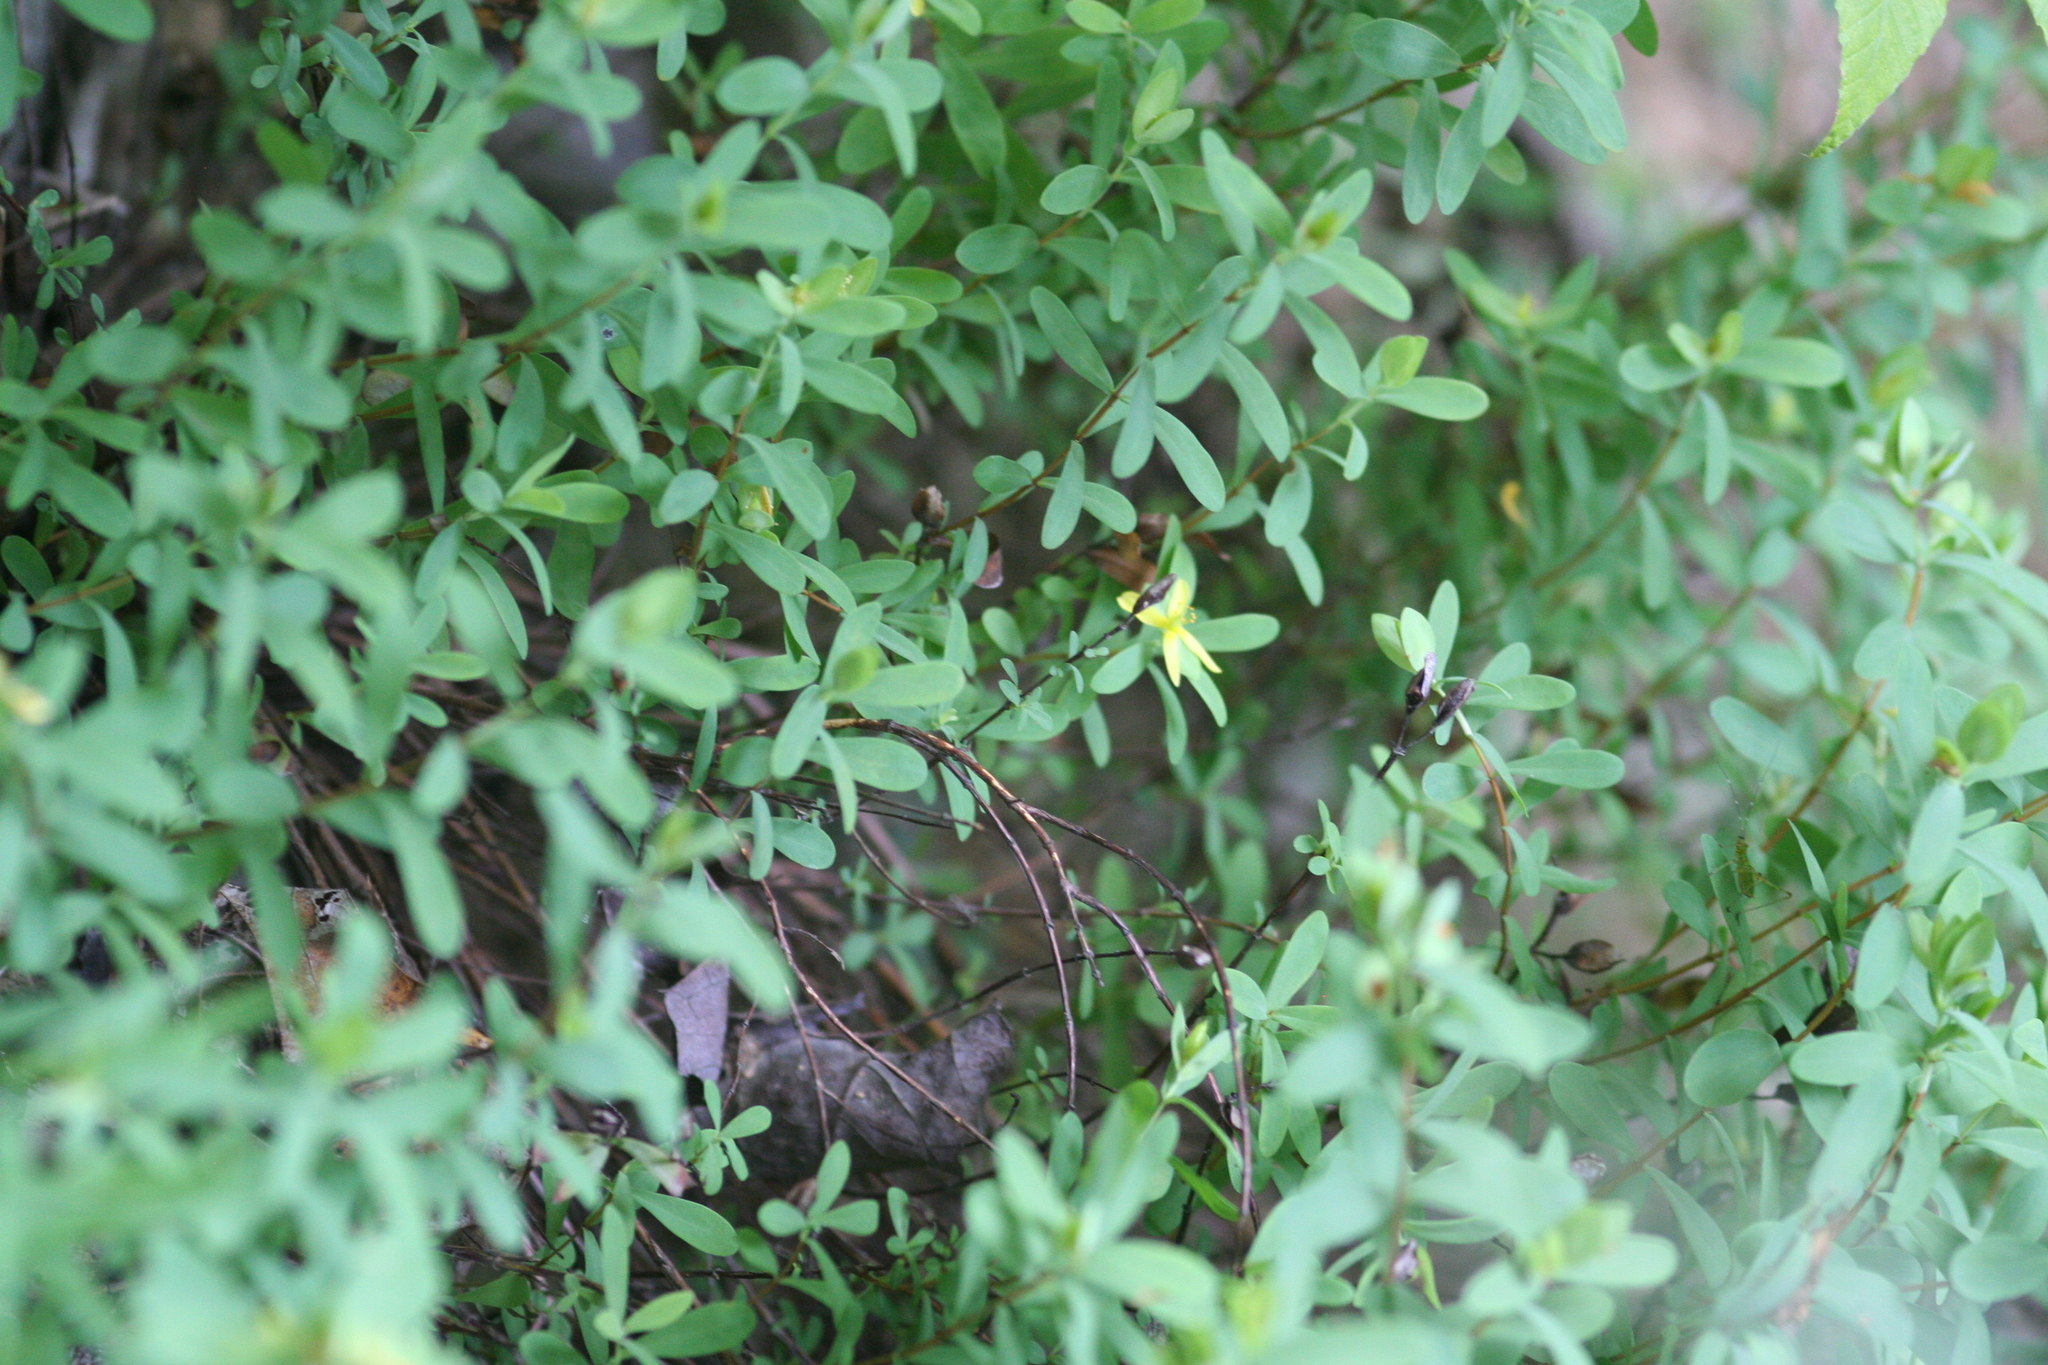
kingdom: Plantae
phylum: Tracheophyta
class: Magnoliopsida
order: Malpighiales
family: Hypericaceae
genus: Hypericum
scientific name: Hypericum hypericoides
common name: St. andrew's cross
